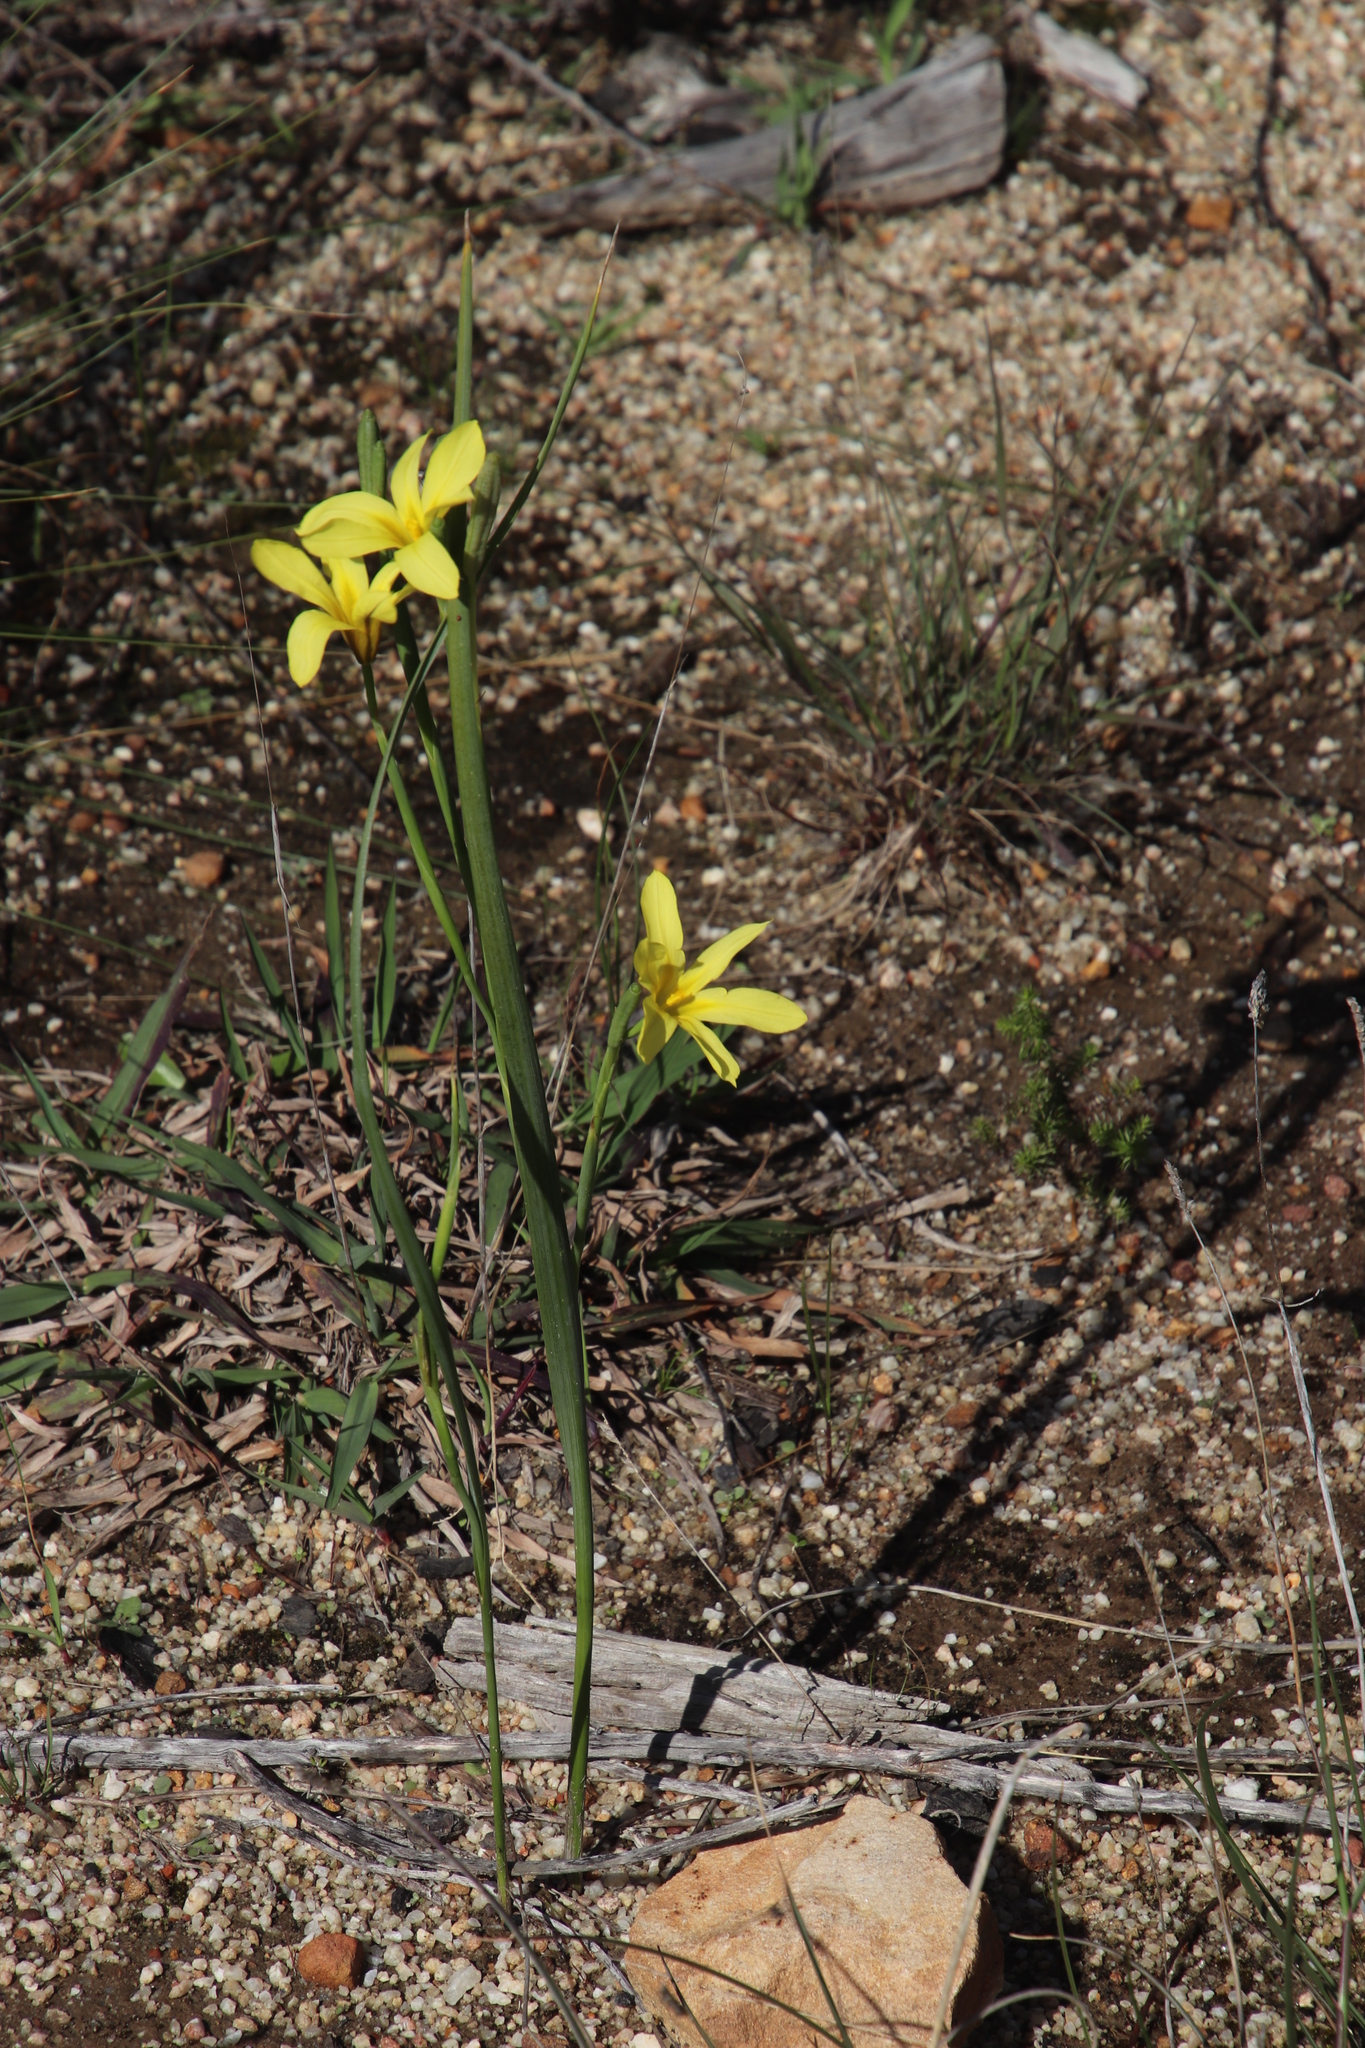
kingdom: Plantae
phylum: Tracheophyta
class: Liliopsida
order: Asparagales
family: Iridaceae
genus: Moraea
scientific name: Moraea collina
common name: Cape-tulip
